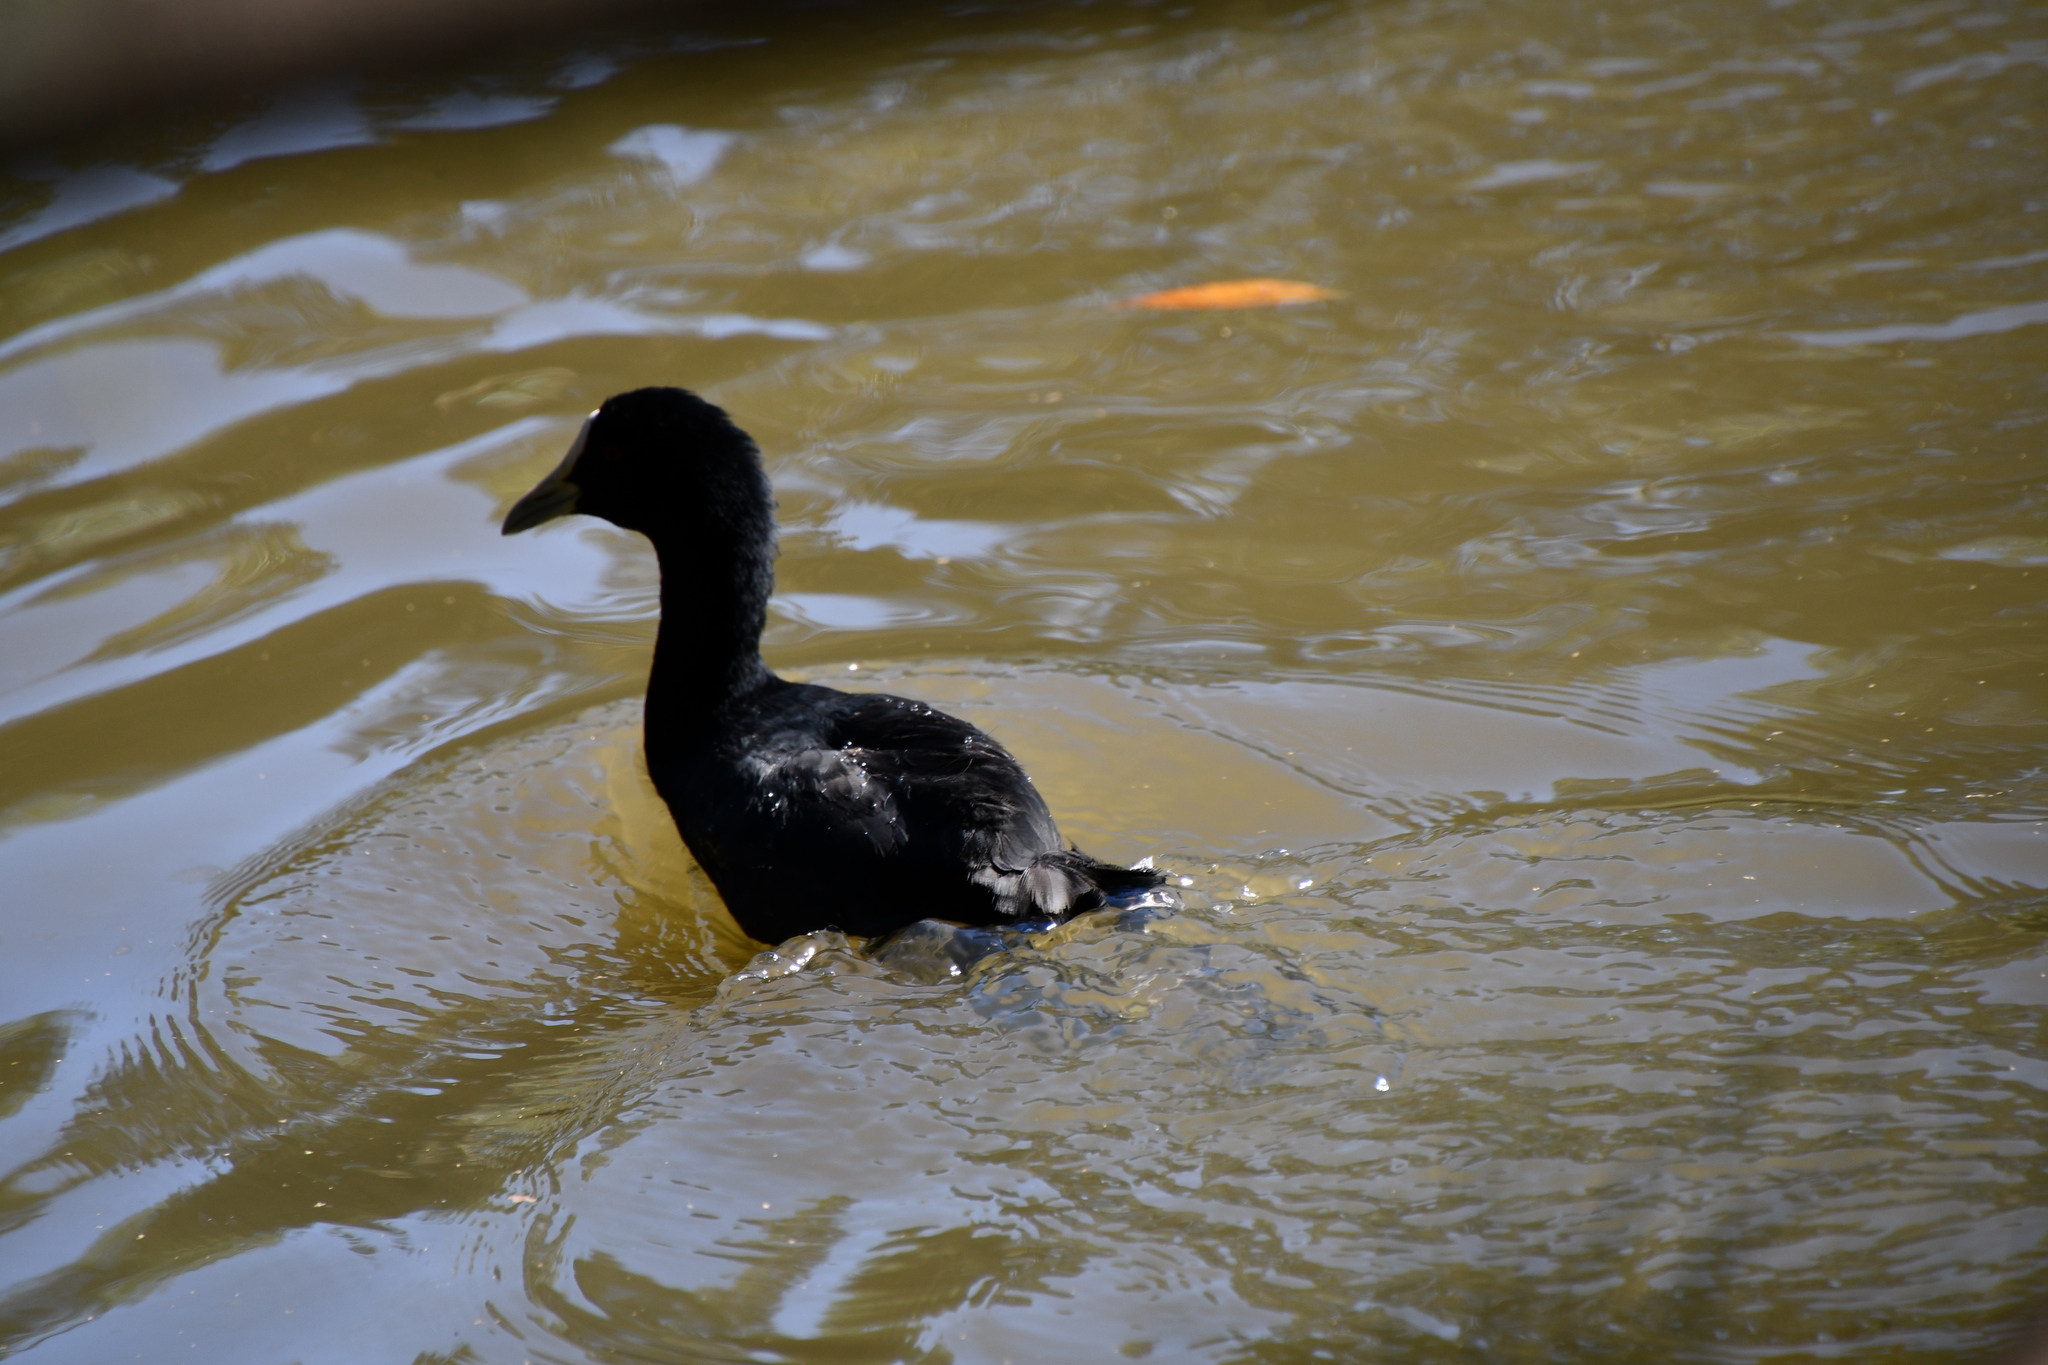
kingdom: Animalia
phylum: Chordata
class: Aves
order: Gruiformes
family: Rallidae
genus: Fulica
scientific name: Fulica atra
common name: Eurasian coot
